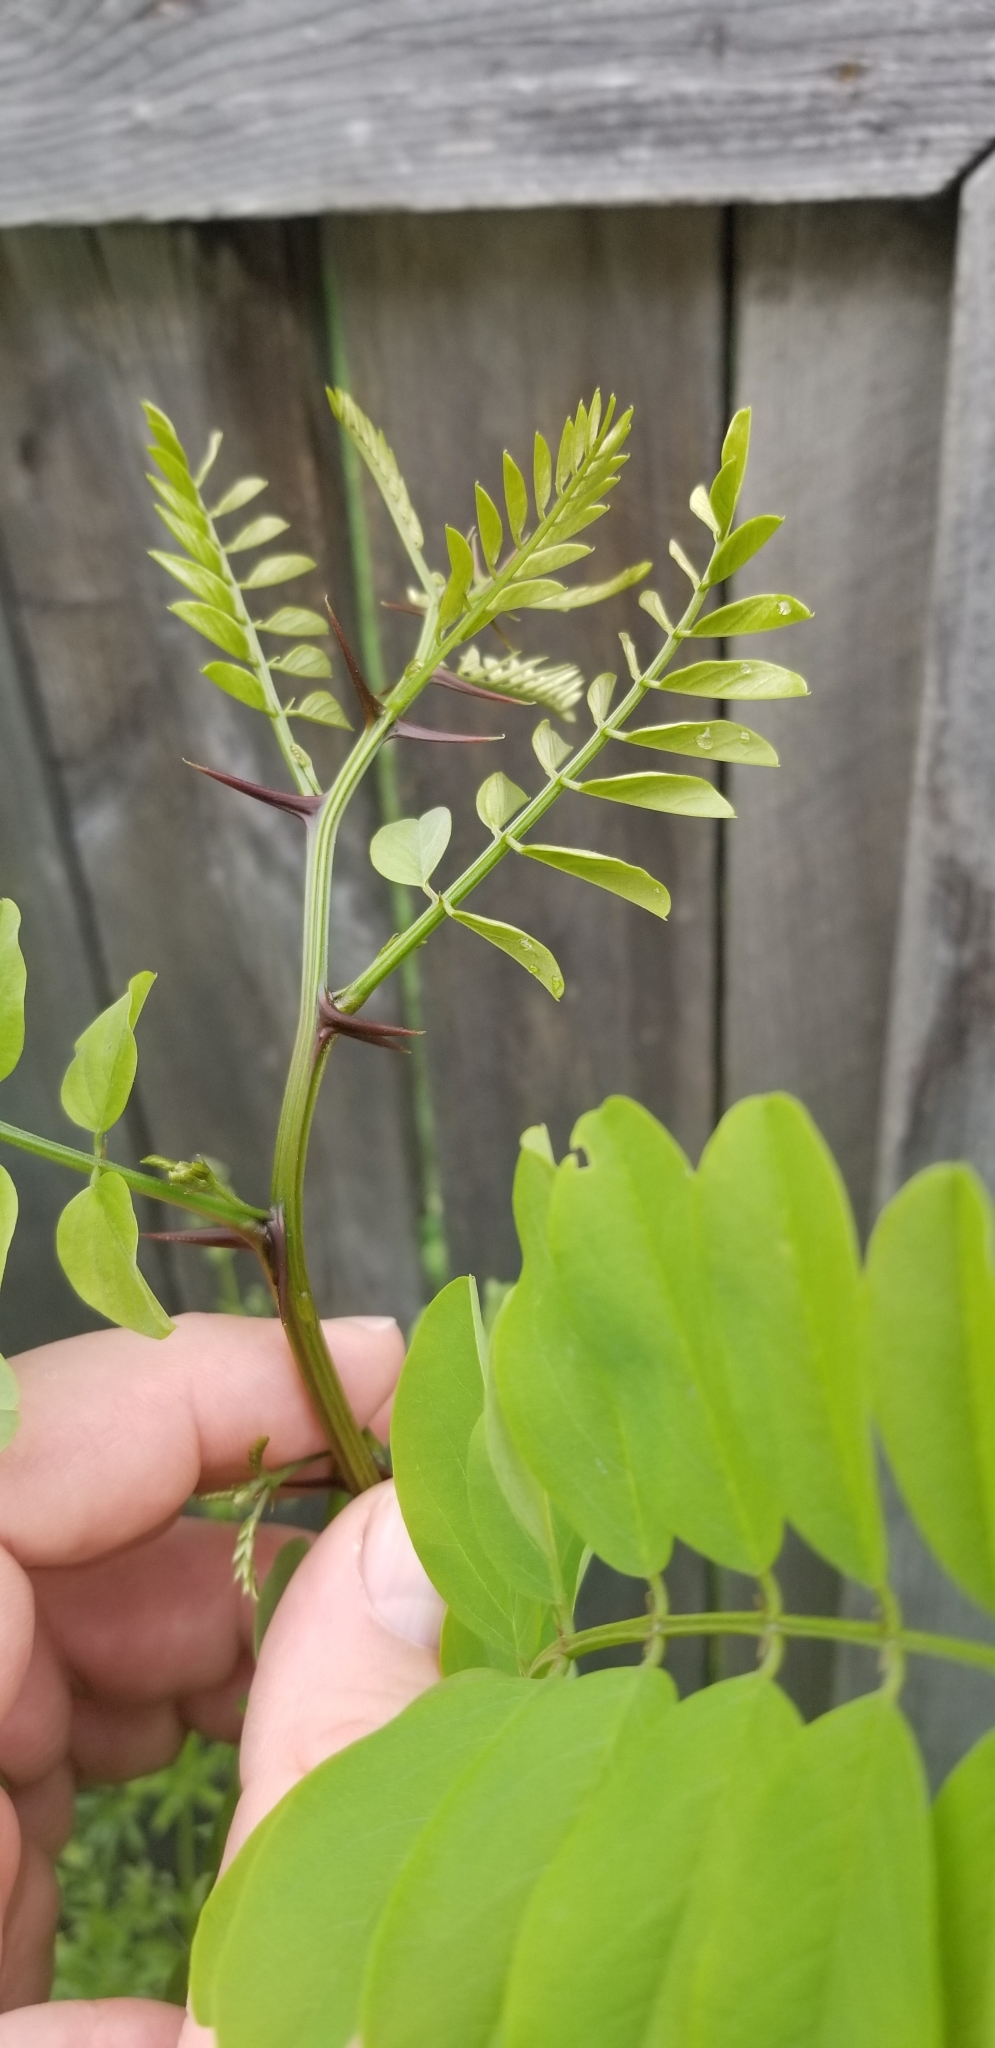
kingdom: Plantae
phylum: Tracheophyta
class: Magnoliopsida
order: Fabales
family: Fabaceae
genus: Robinia
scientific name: Robinia pseudoacacia
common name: Black locust
